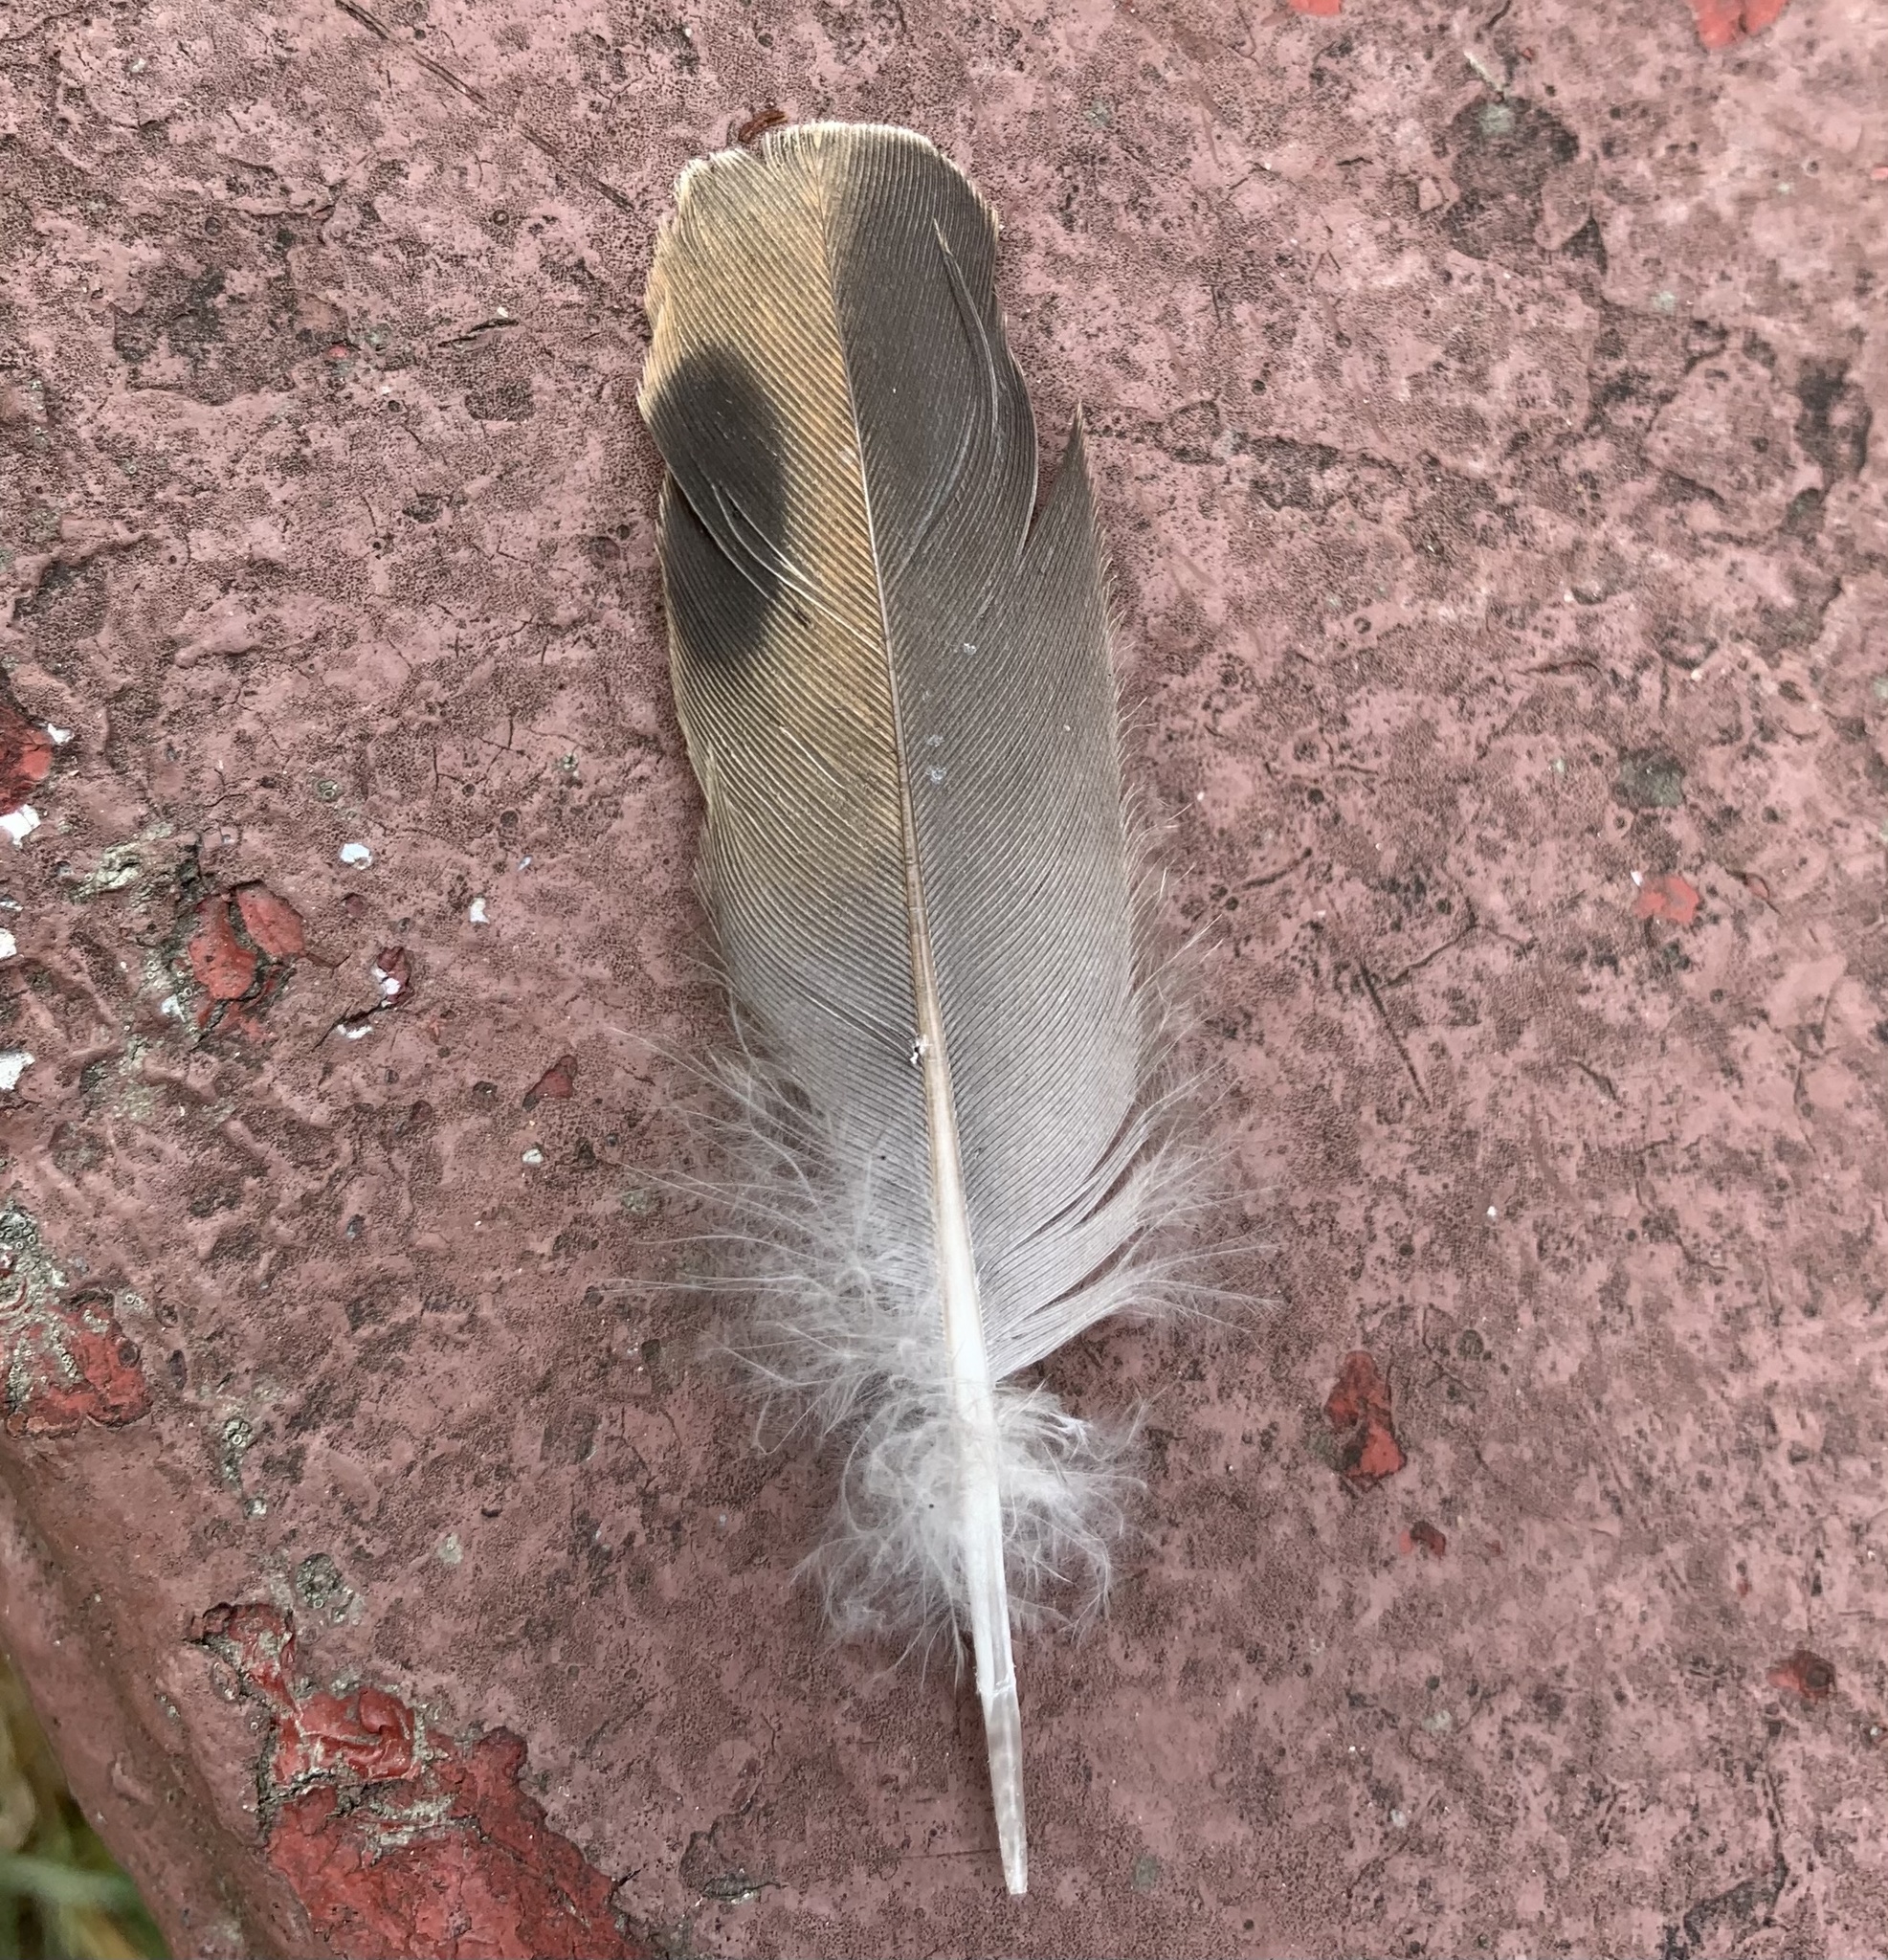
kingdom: Animalia
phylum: Chordata
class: Aves
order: Columbiformes
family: Columbidae
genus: Zenaida
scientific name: Zenaida macroura
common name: Mourning dove
